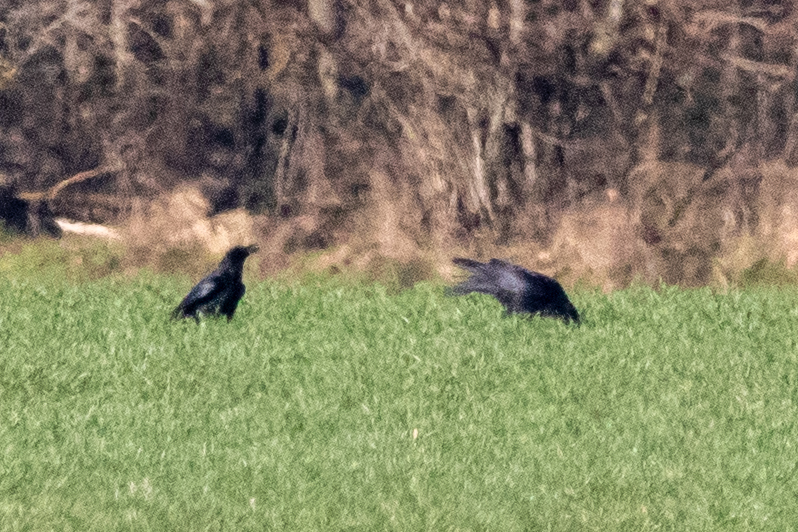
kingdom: Animalia
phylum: Chordata
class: Aves
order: Passeriformes
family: Corvidae
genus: Corvus
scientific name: Corvus corone
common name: Carrion crow
